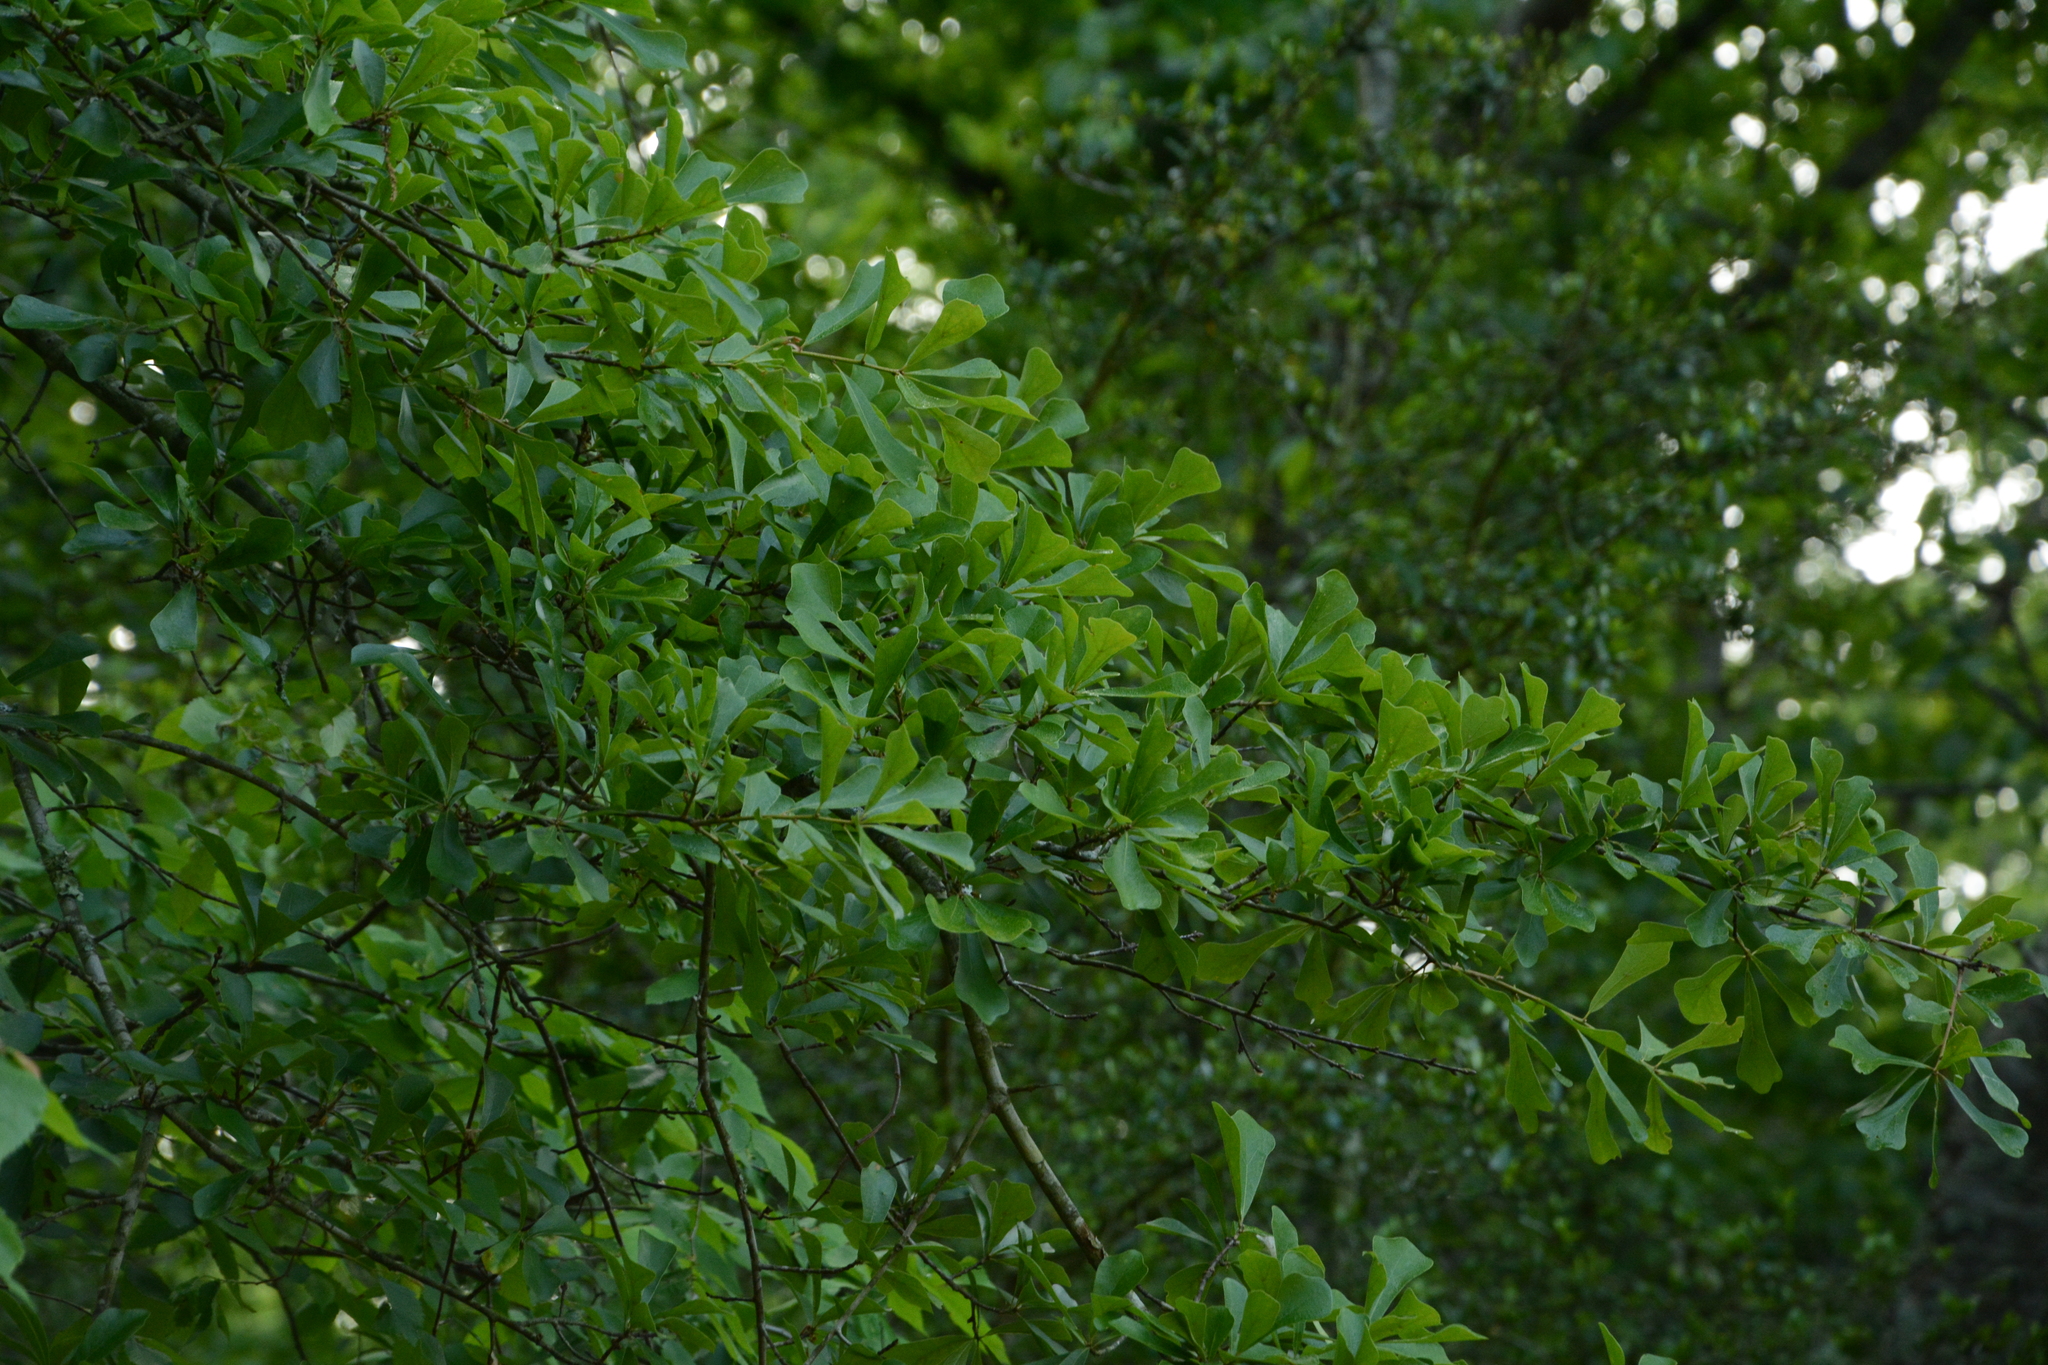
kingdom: Plantae
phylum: Tracheophyta
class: Magnoliopsida
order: Fagales
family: Fagaceae
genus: Quercus
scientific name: Quercus nigra
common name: Water oak
